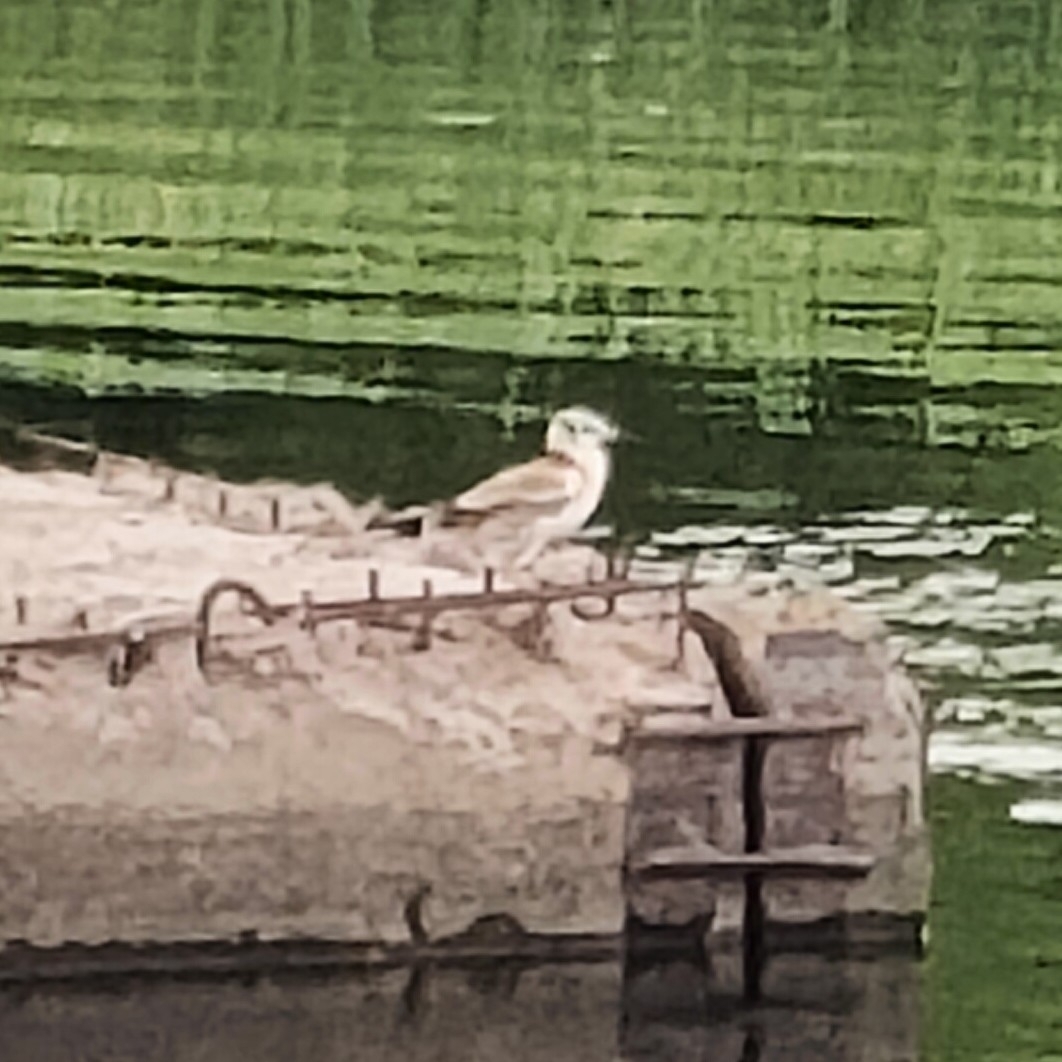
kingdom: Animalia
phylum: Chordata
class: Aves
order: Charadriiformes
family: Laridae
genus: Chroicocephalus
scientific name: Chroicocephalus ridibundus
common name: Black-headed gull
